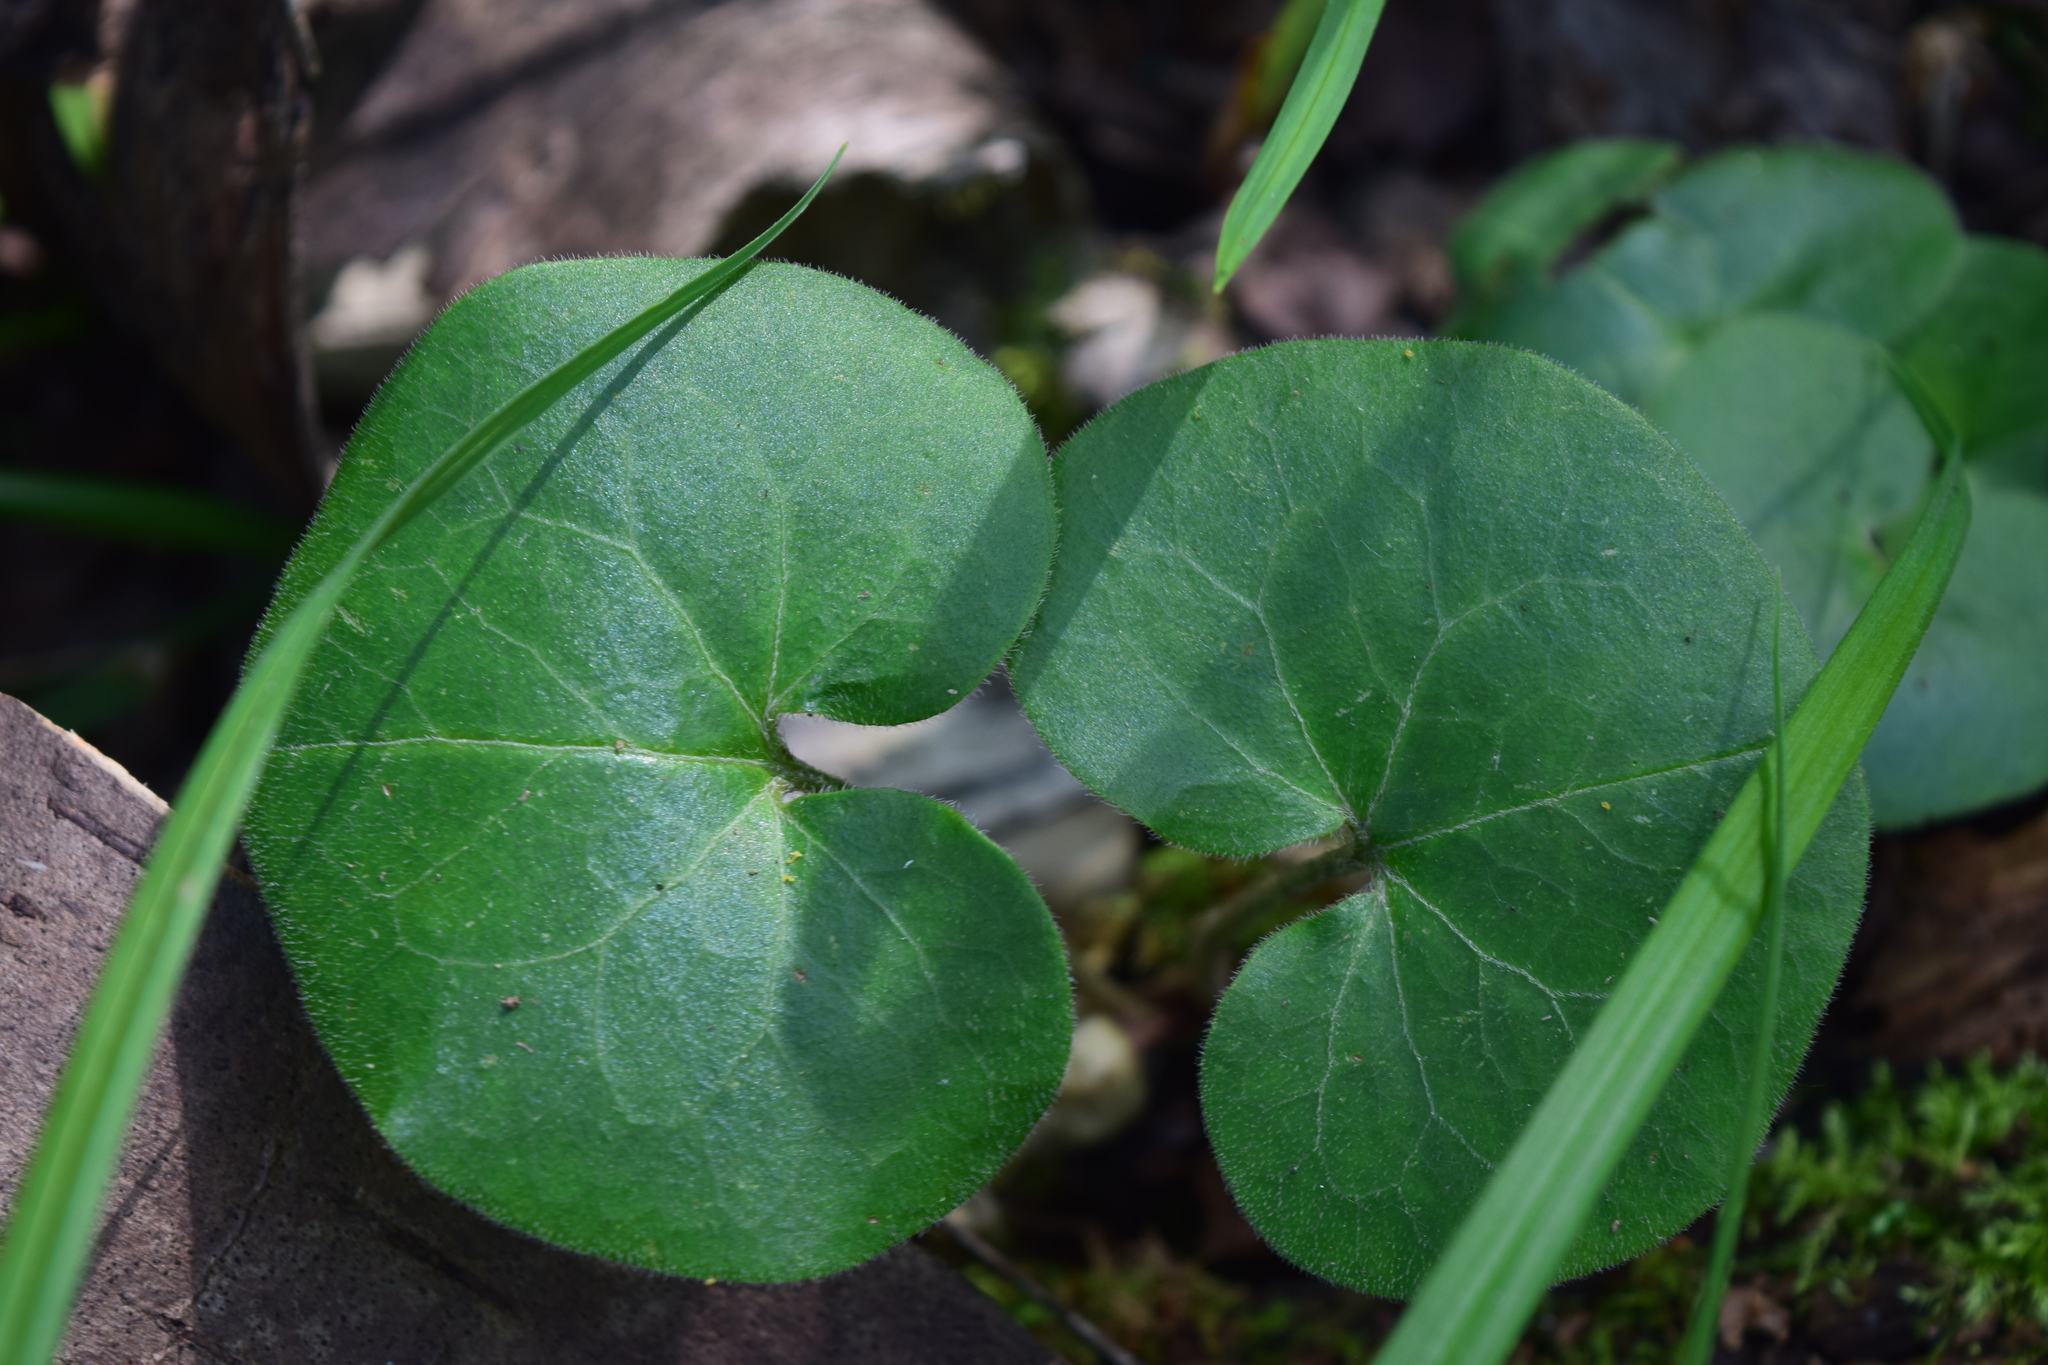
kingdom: Plantae
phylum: Tracheophyta
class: Magnoliopsida
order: Piperales
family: Aristolochiaceae
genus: Asarum
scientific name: Asarum europaeum
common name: Asarabacca
